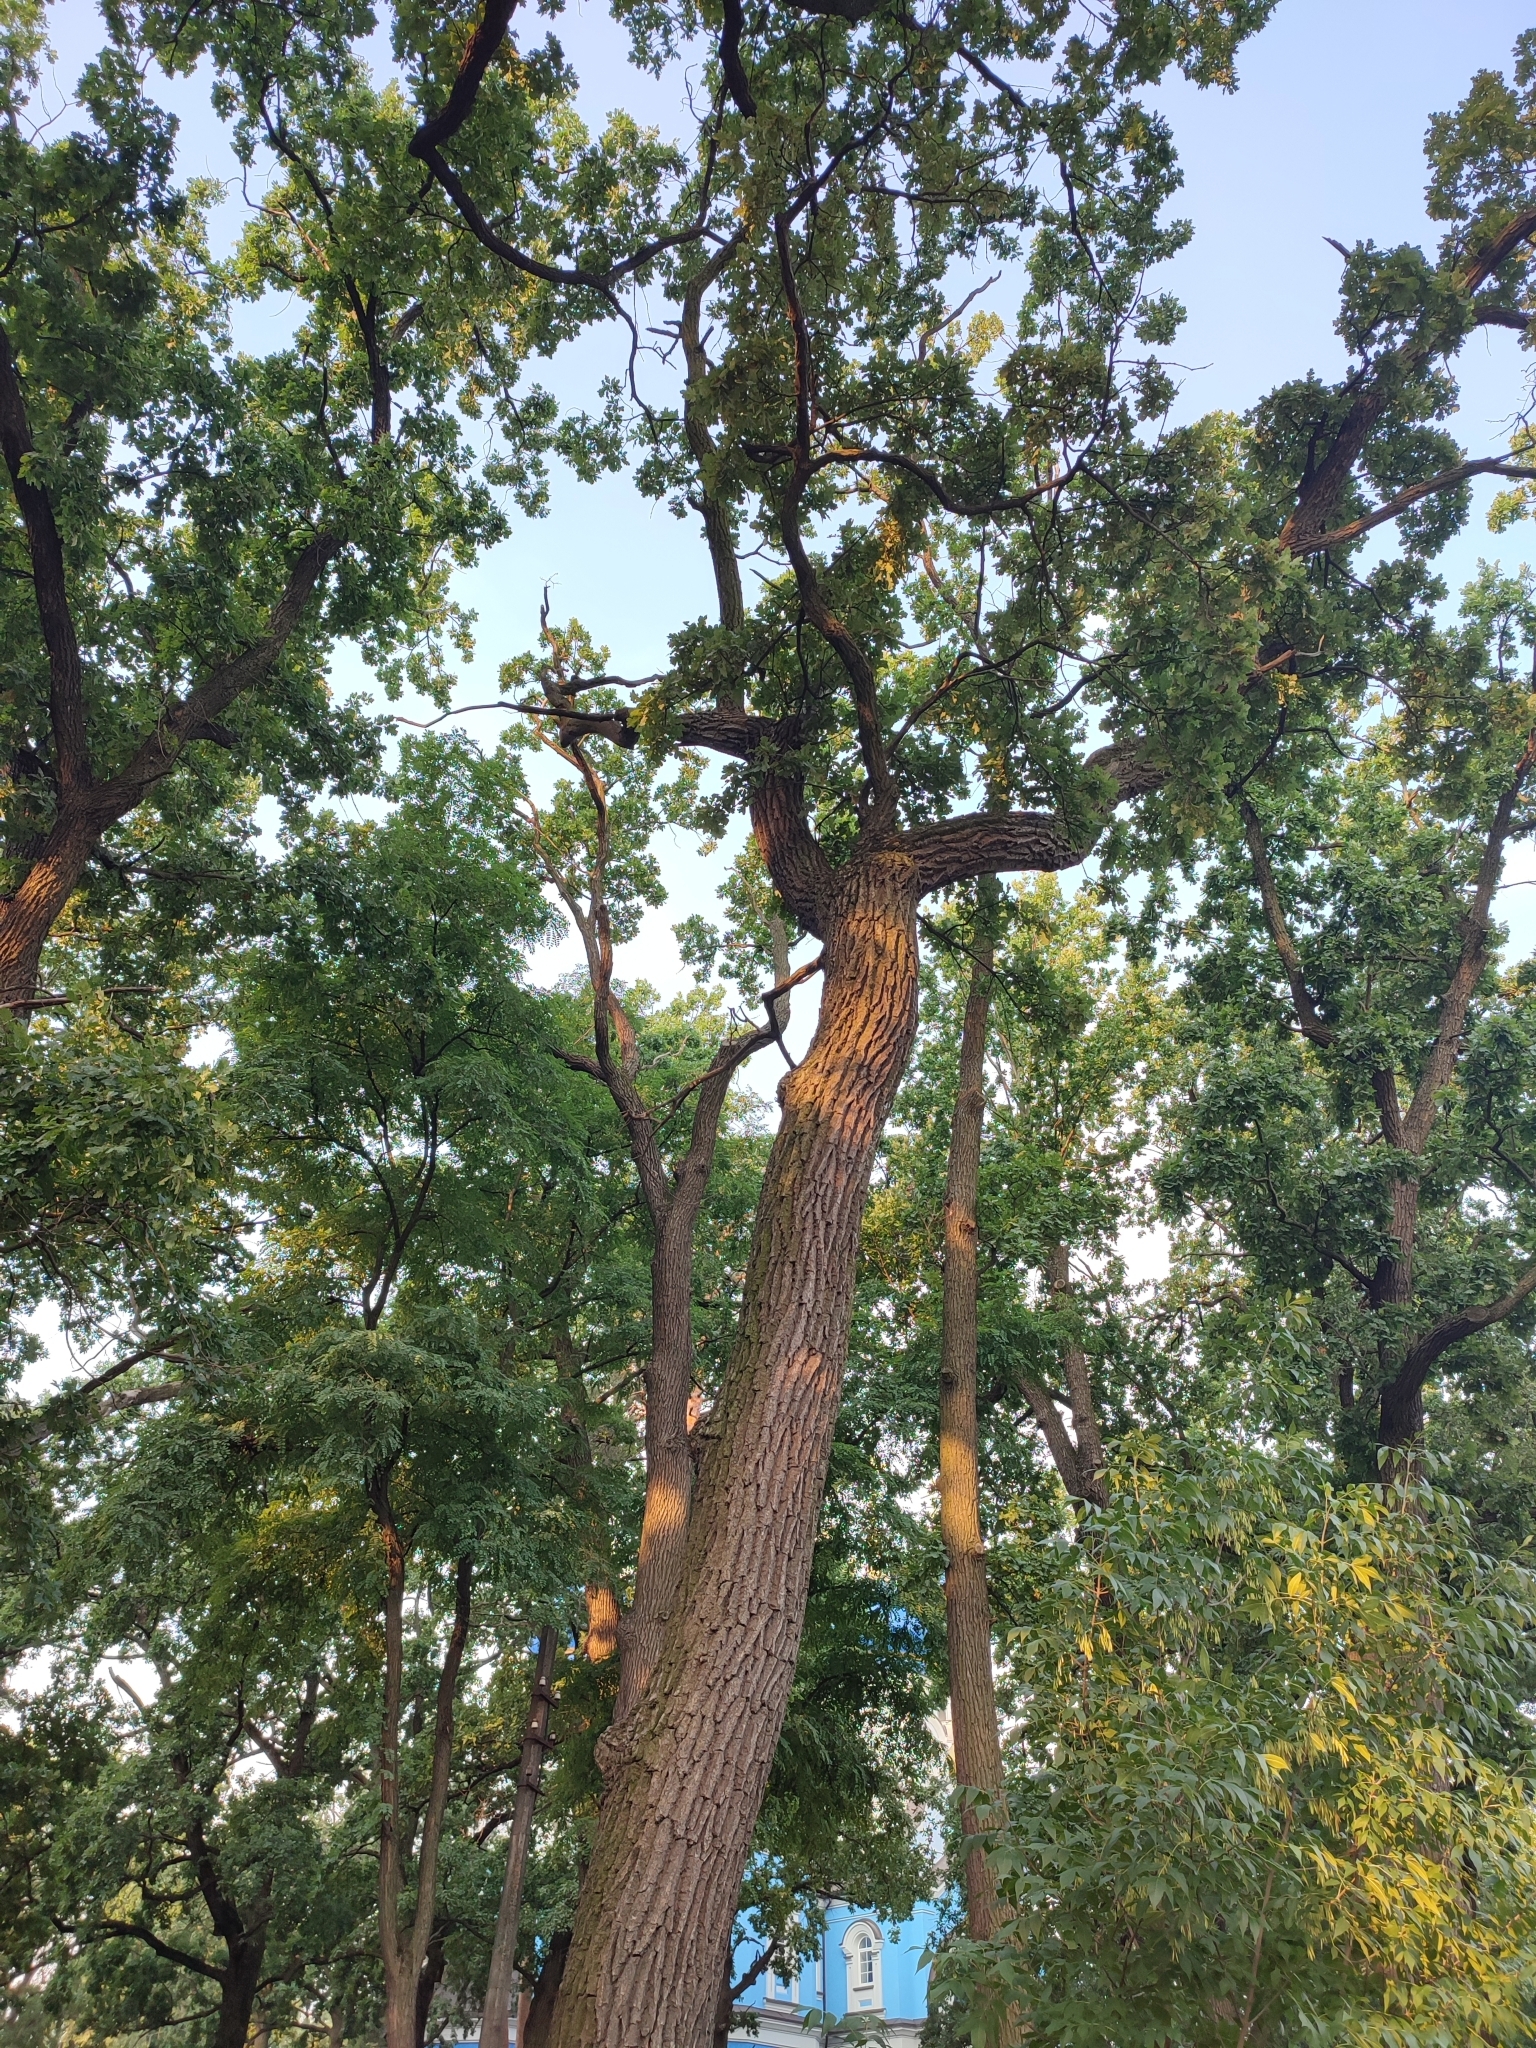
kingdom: Plantae
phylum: Tracheophyta
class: Magnoliopsida
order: Fagales
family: Fagaceae
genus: Quercus
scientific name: Quercus robur
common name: Pedunculate oak
